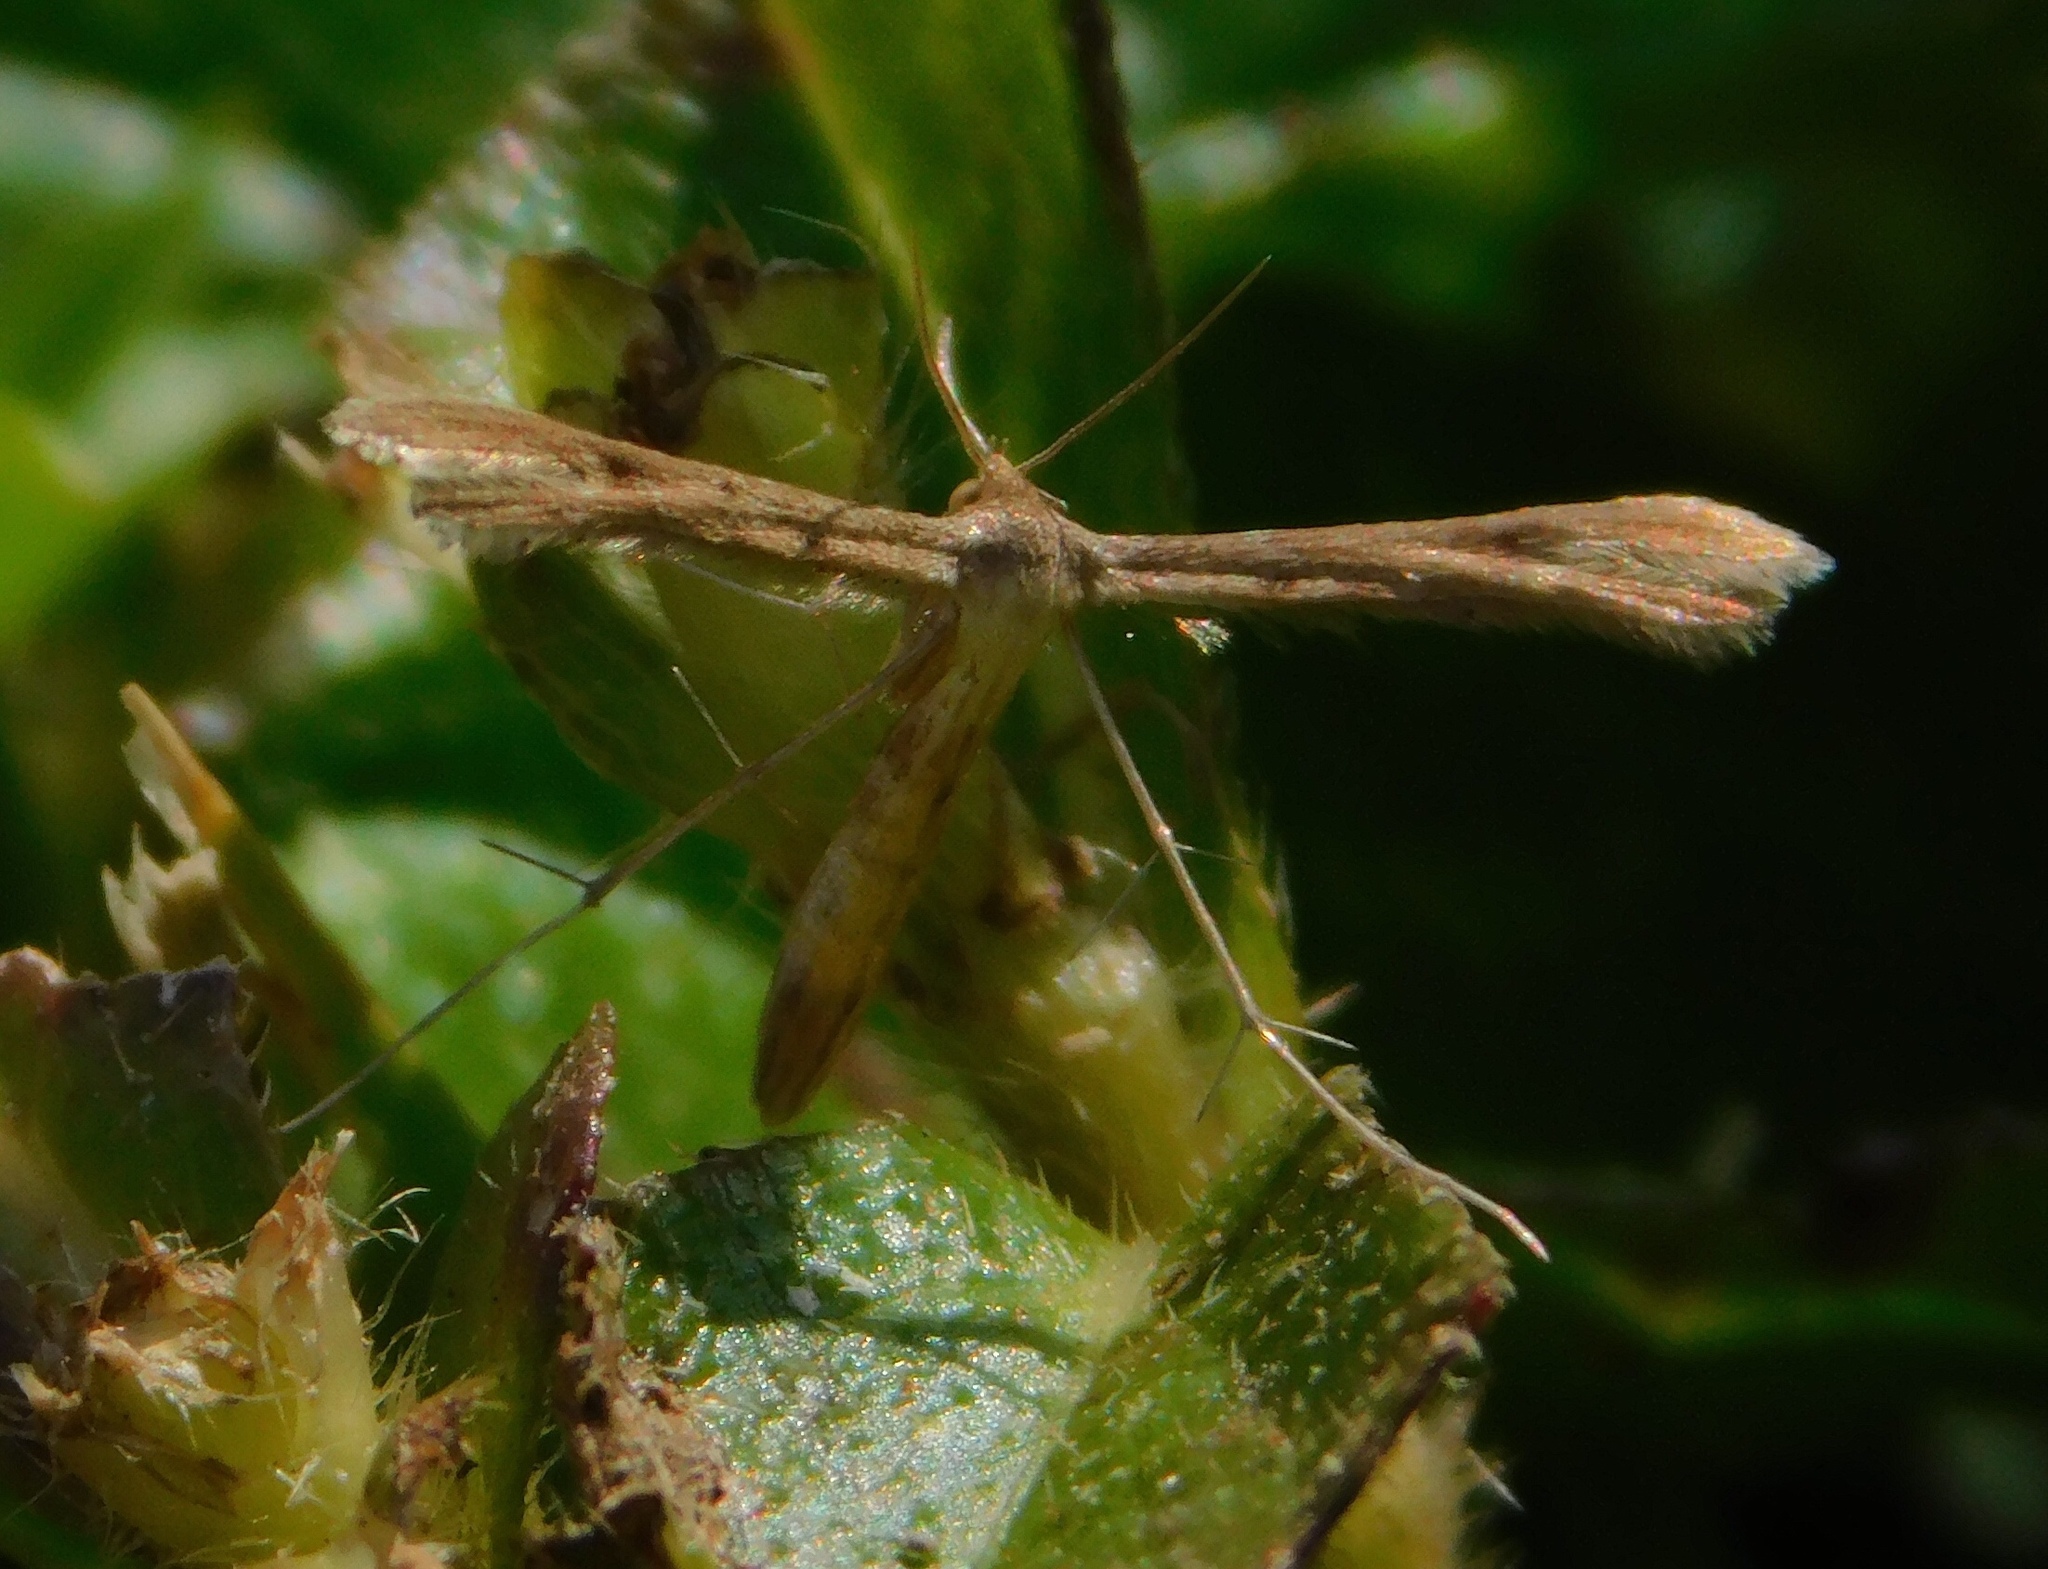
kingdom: Animalia
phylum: Arthropoda
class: Insecta
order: Lepidoptera
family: Pterophoridae
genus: Exelastis
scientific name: Exelastis pumilio
